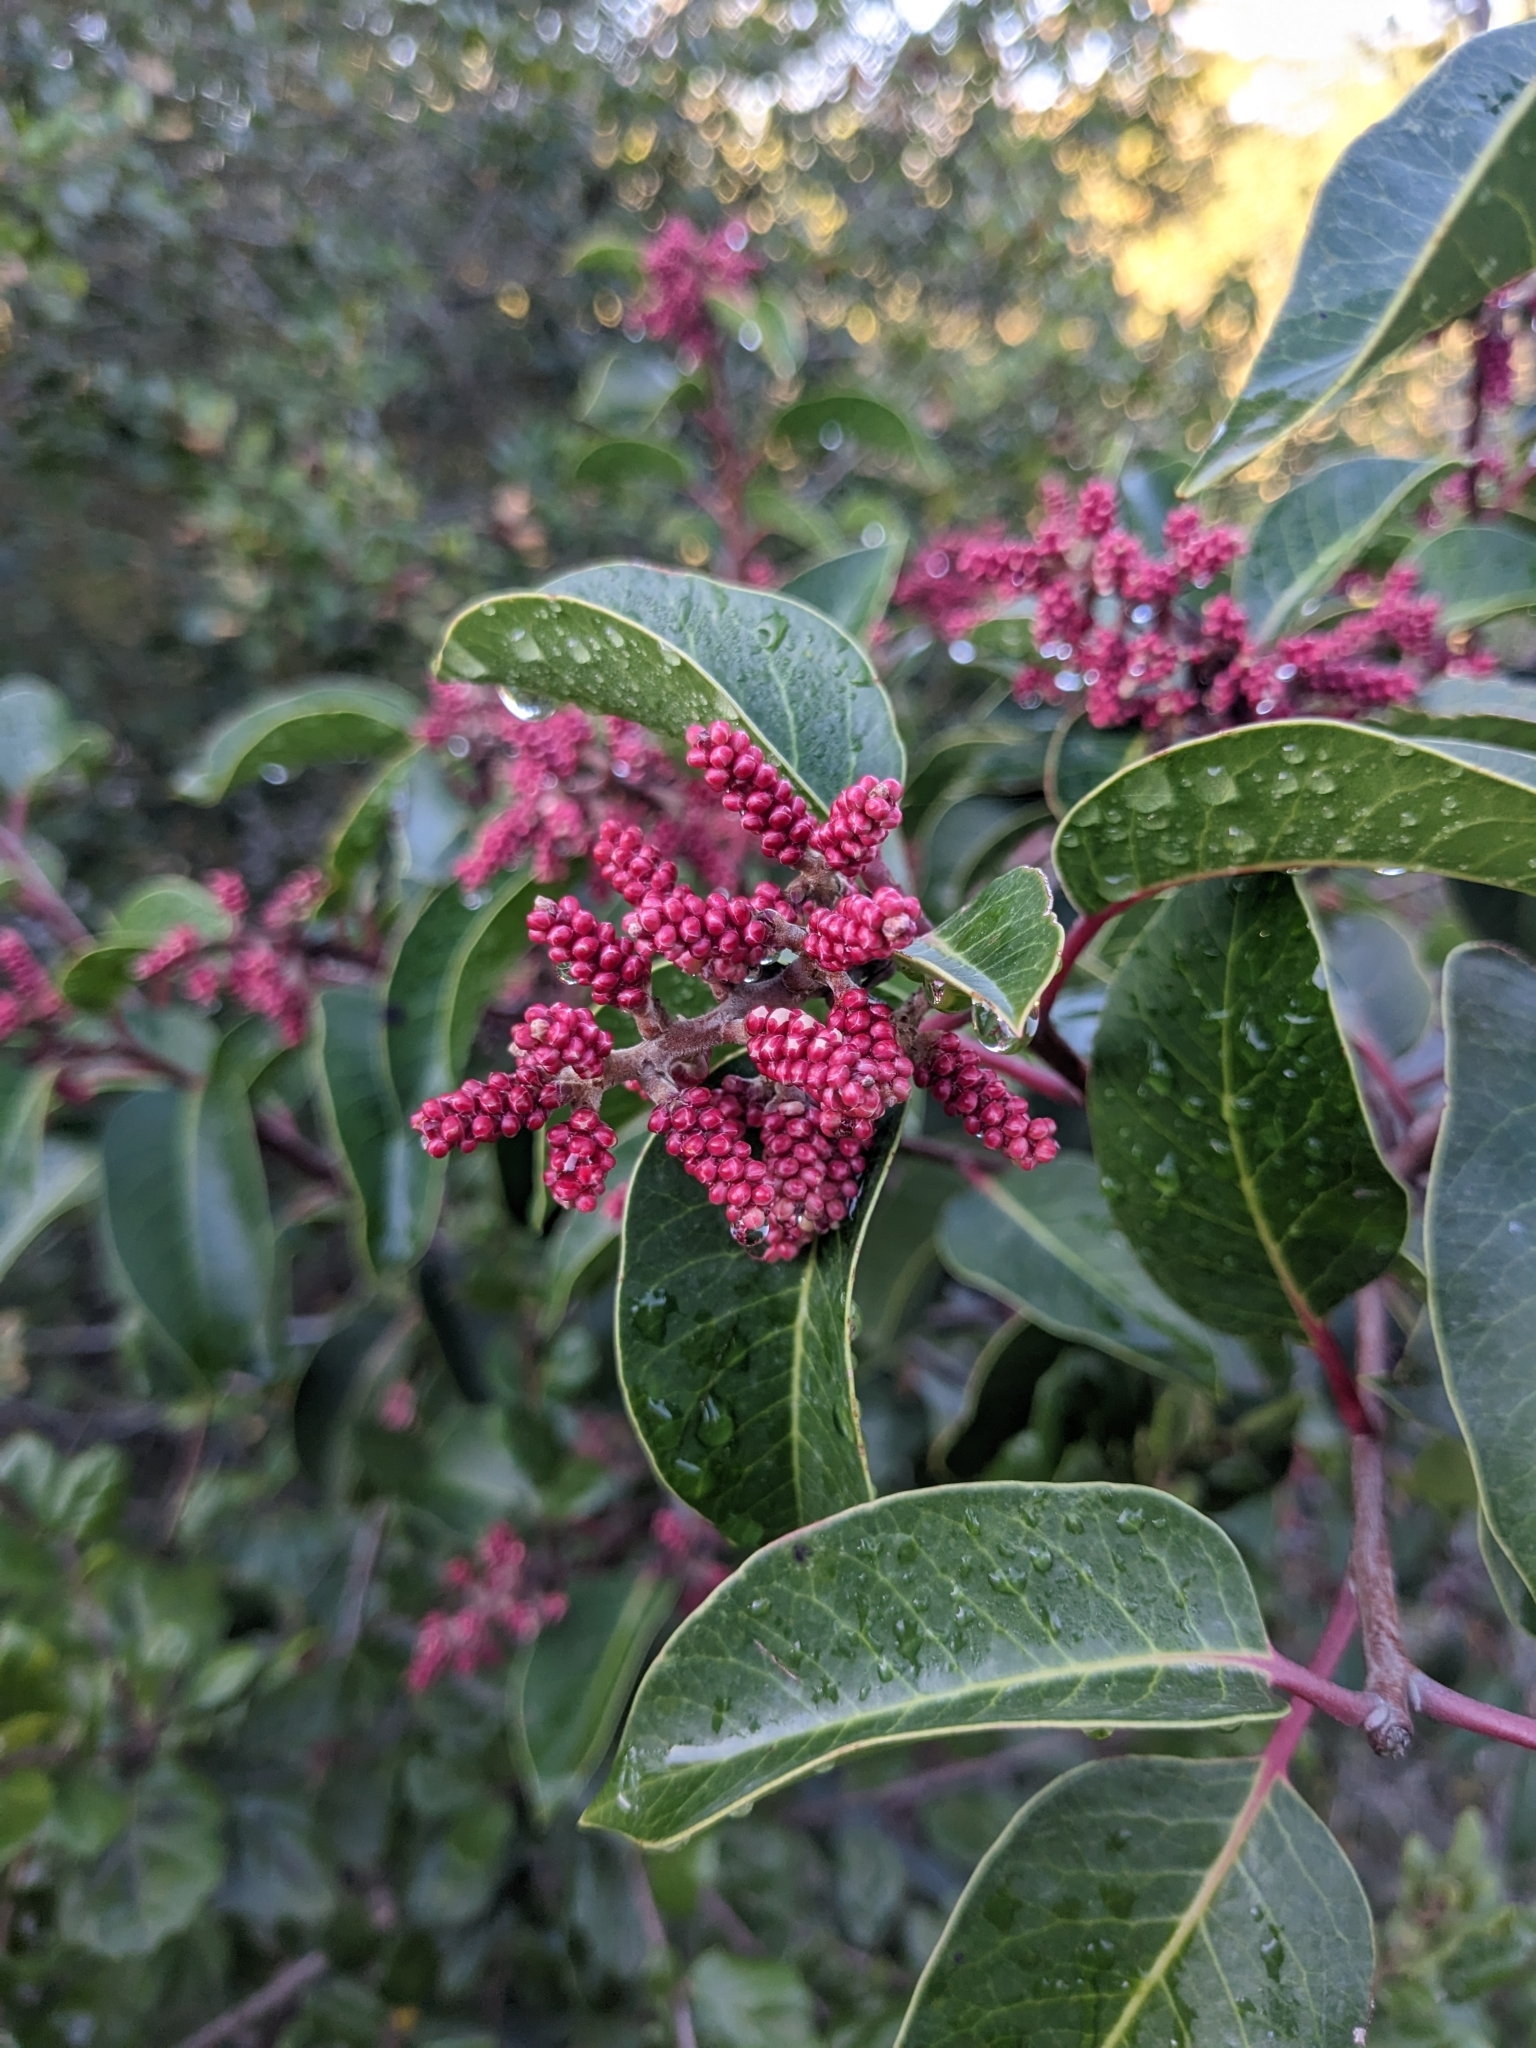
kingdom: Plantae
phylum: Tracheophyta
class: Magnoliopsida
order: Sapindales
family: Anacardiaceae
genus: Rhus
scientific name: Rhus ovata
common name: Sugar sumac
